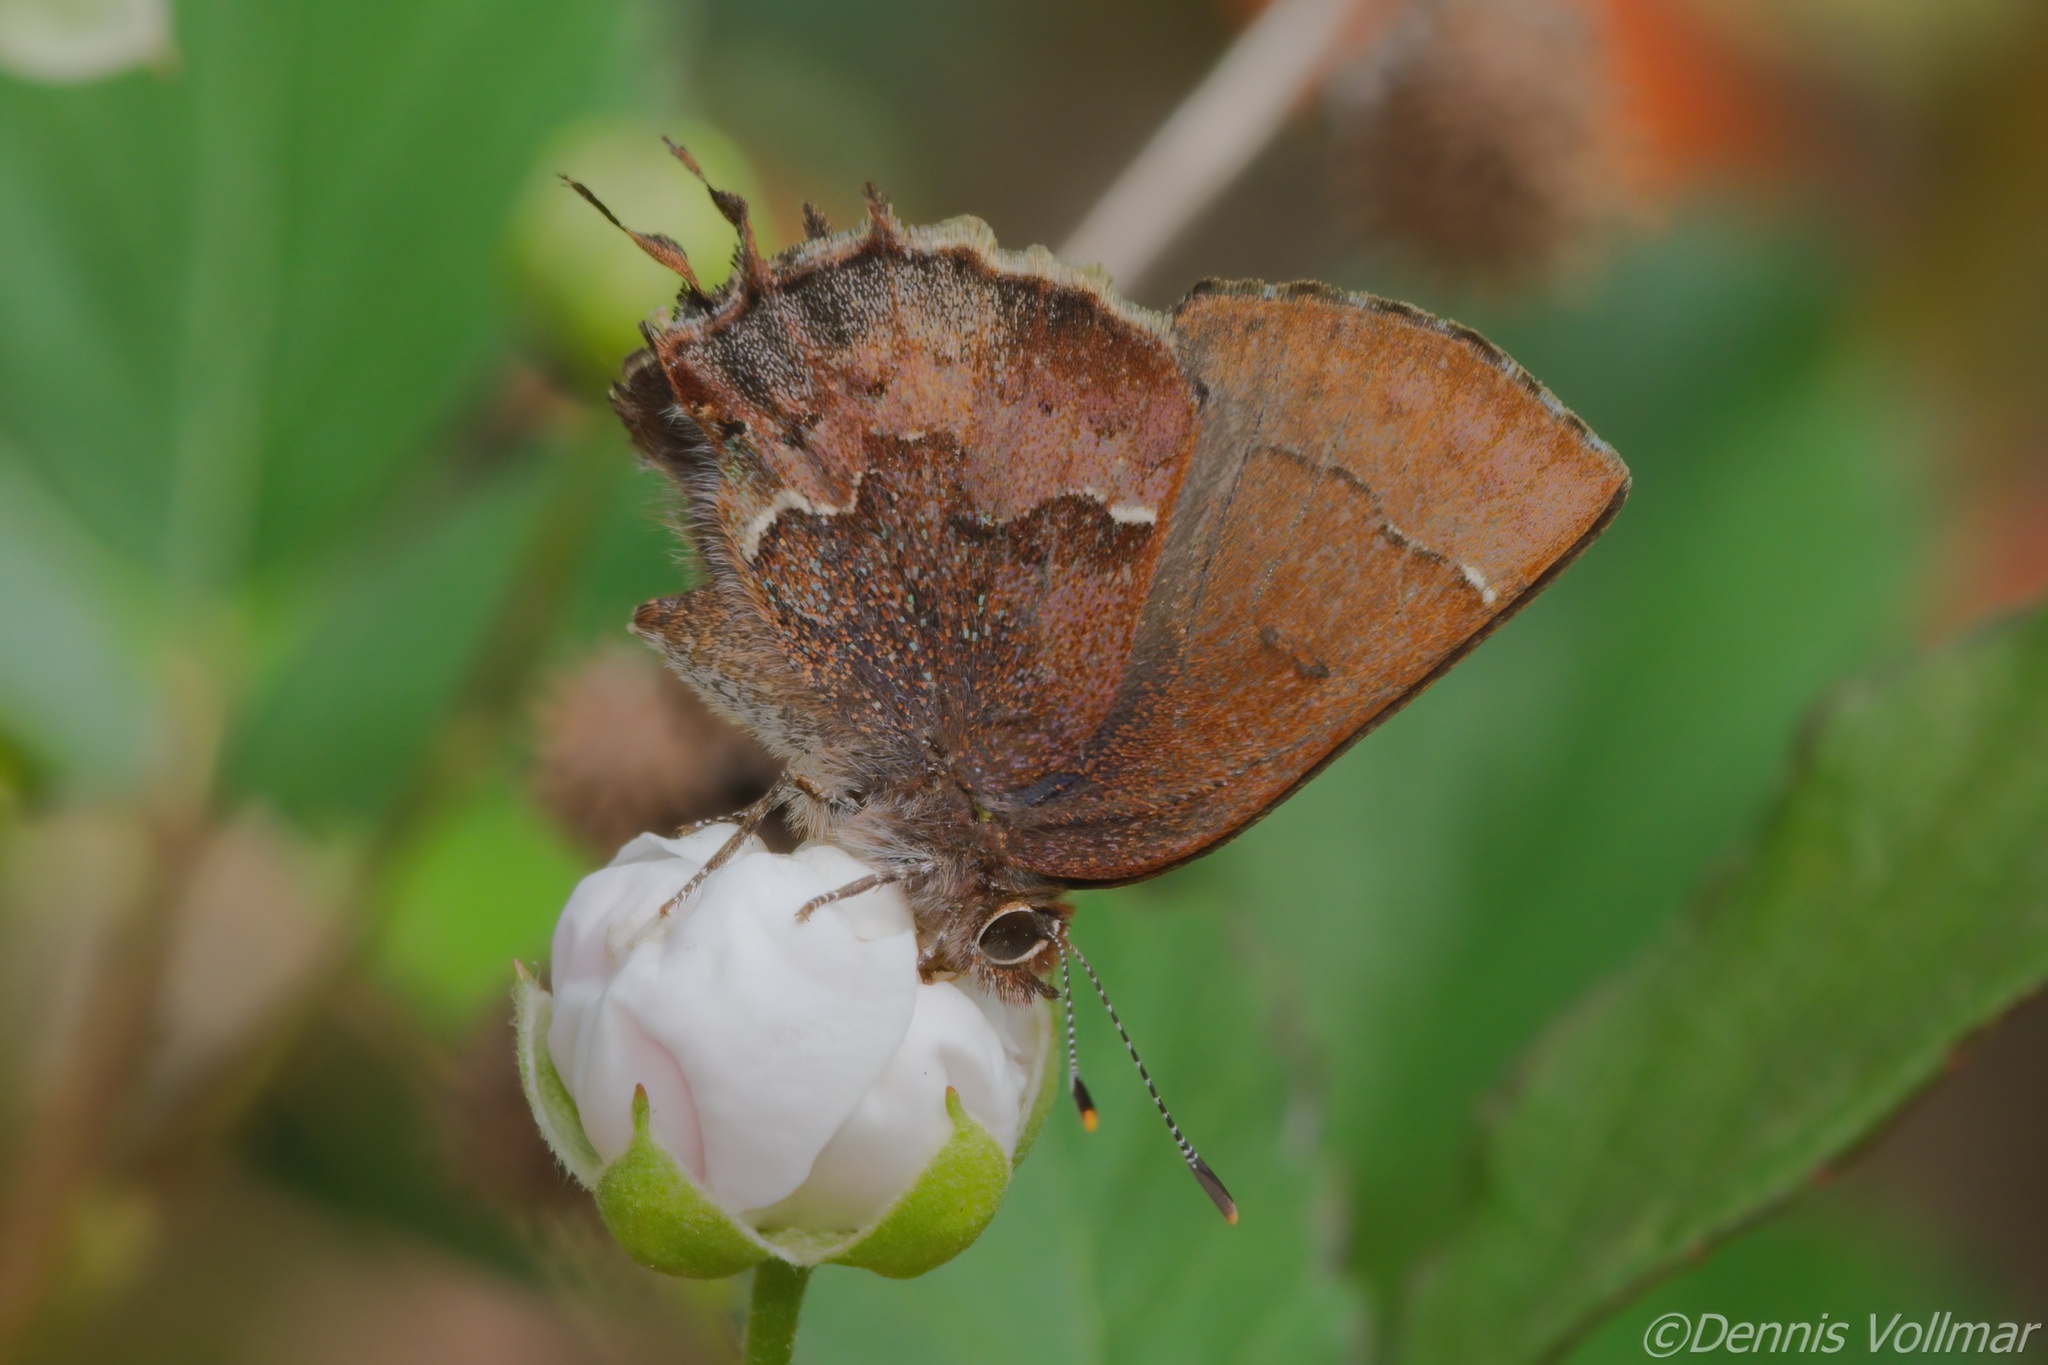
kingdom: Animalia
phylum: Arthropoda
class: Insecta
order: Lepidoptera
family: Lycaenidae
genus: Incisalia
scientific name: Incisalia henrici
